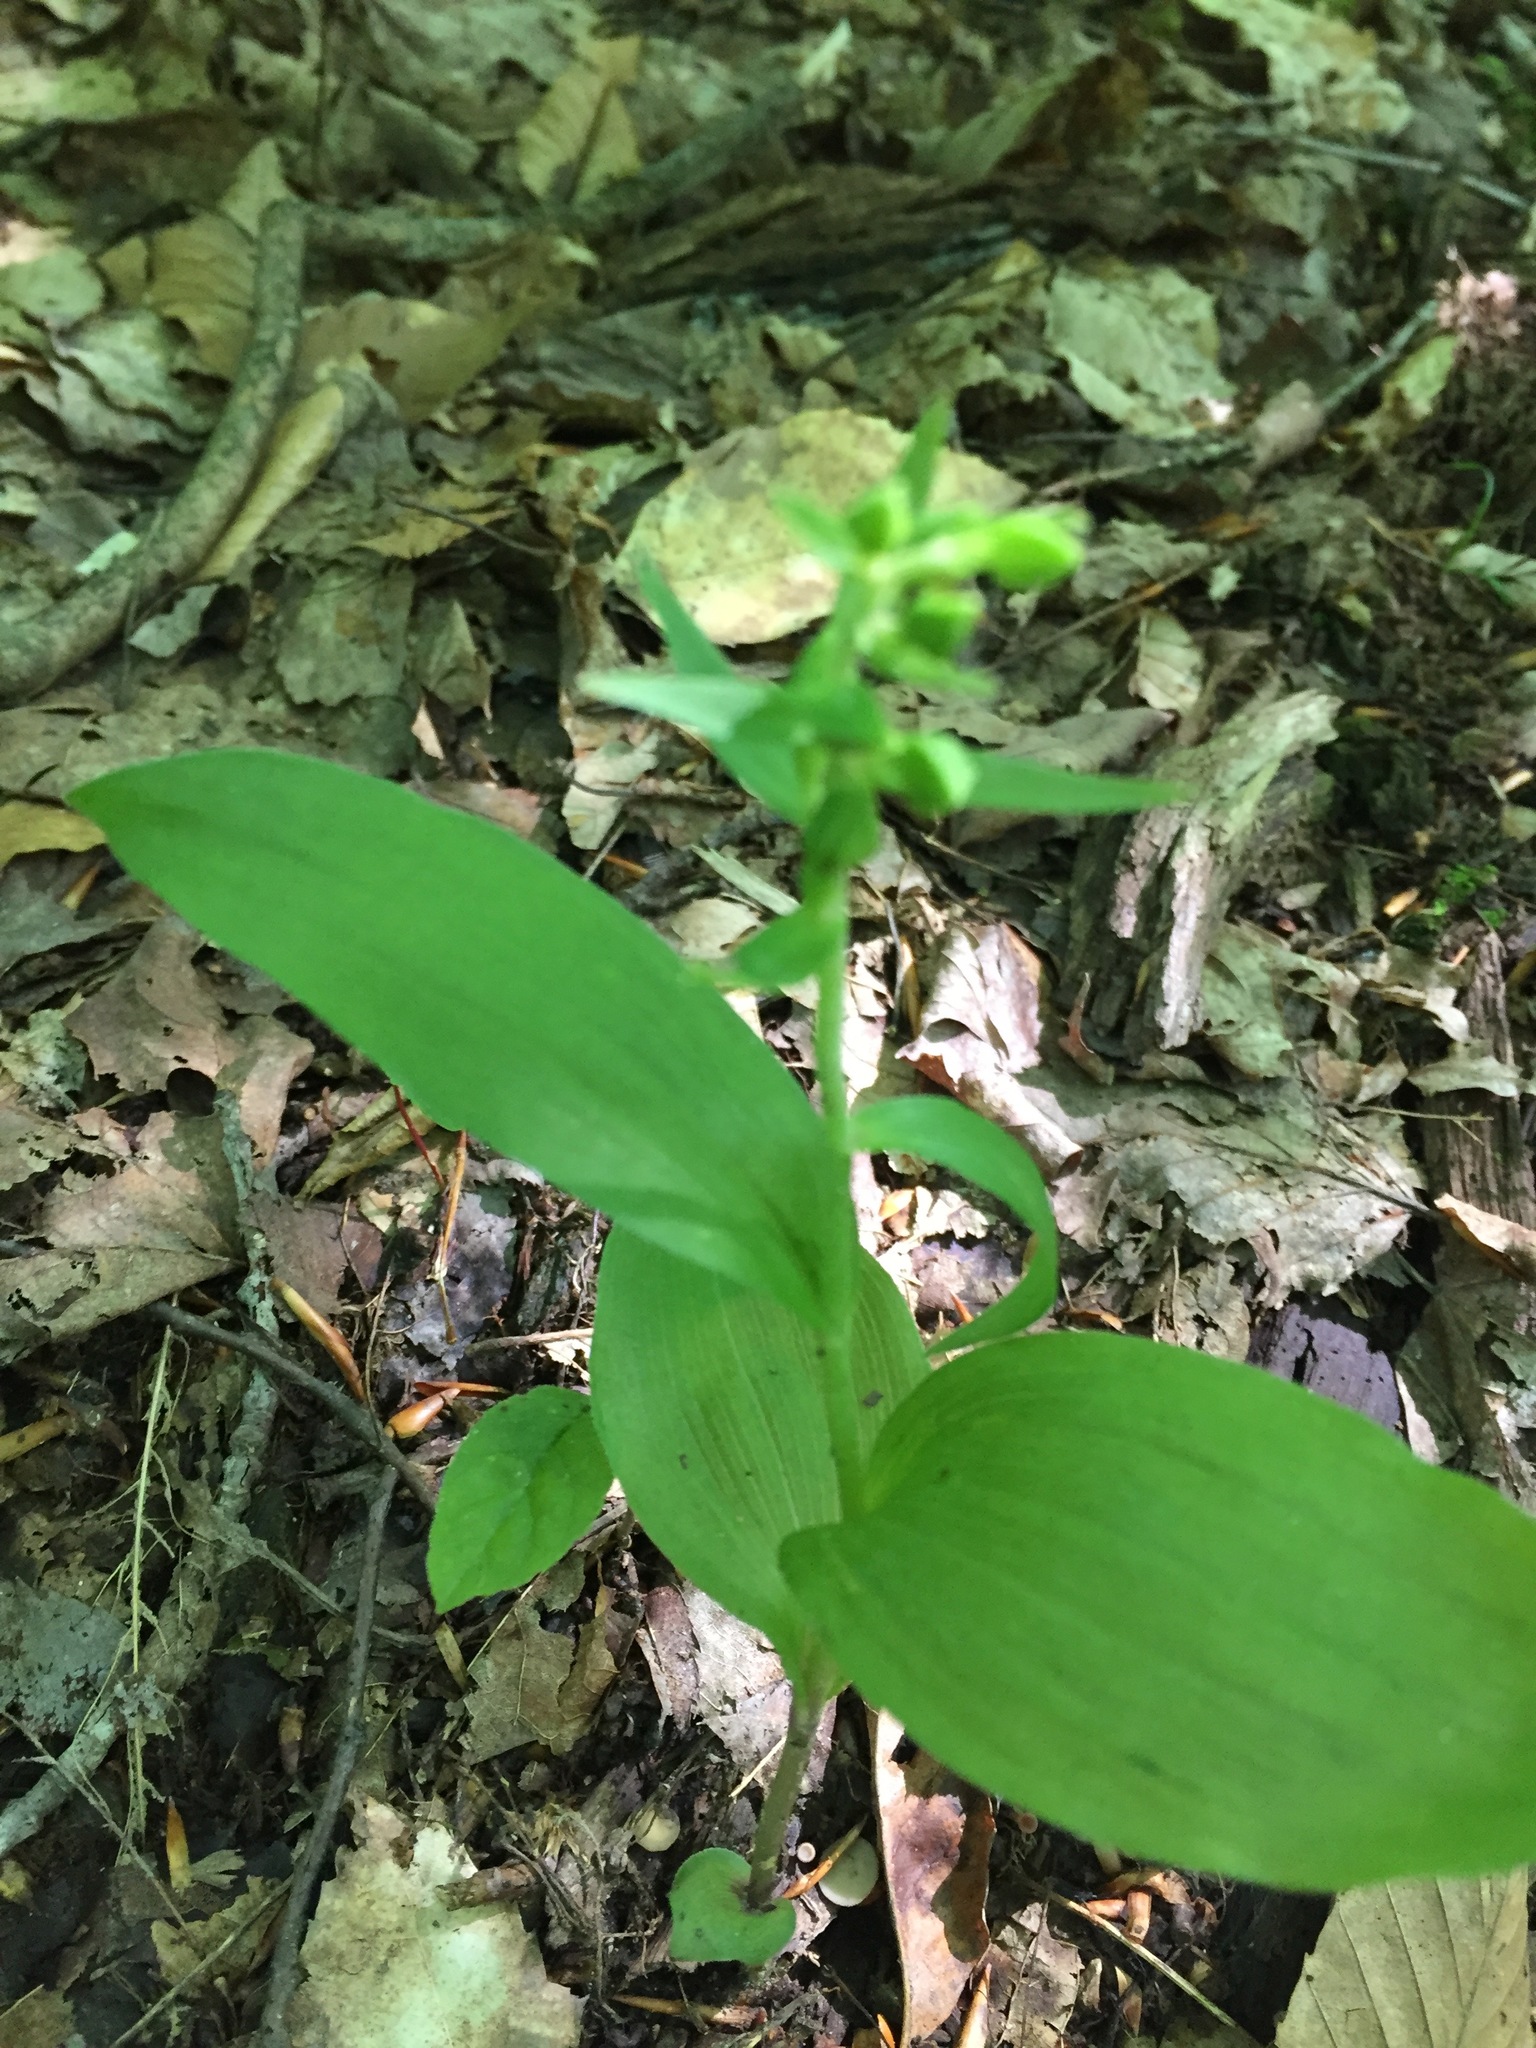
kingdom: Plantae
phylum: Tracheophyta
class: Liliopsida
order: Asparagales
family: Orchidaceae
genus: Epipactis
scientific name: Epipactis helleborine
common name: Broad-leaved helleborine
